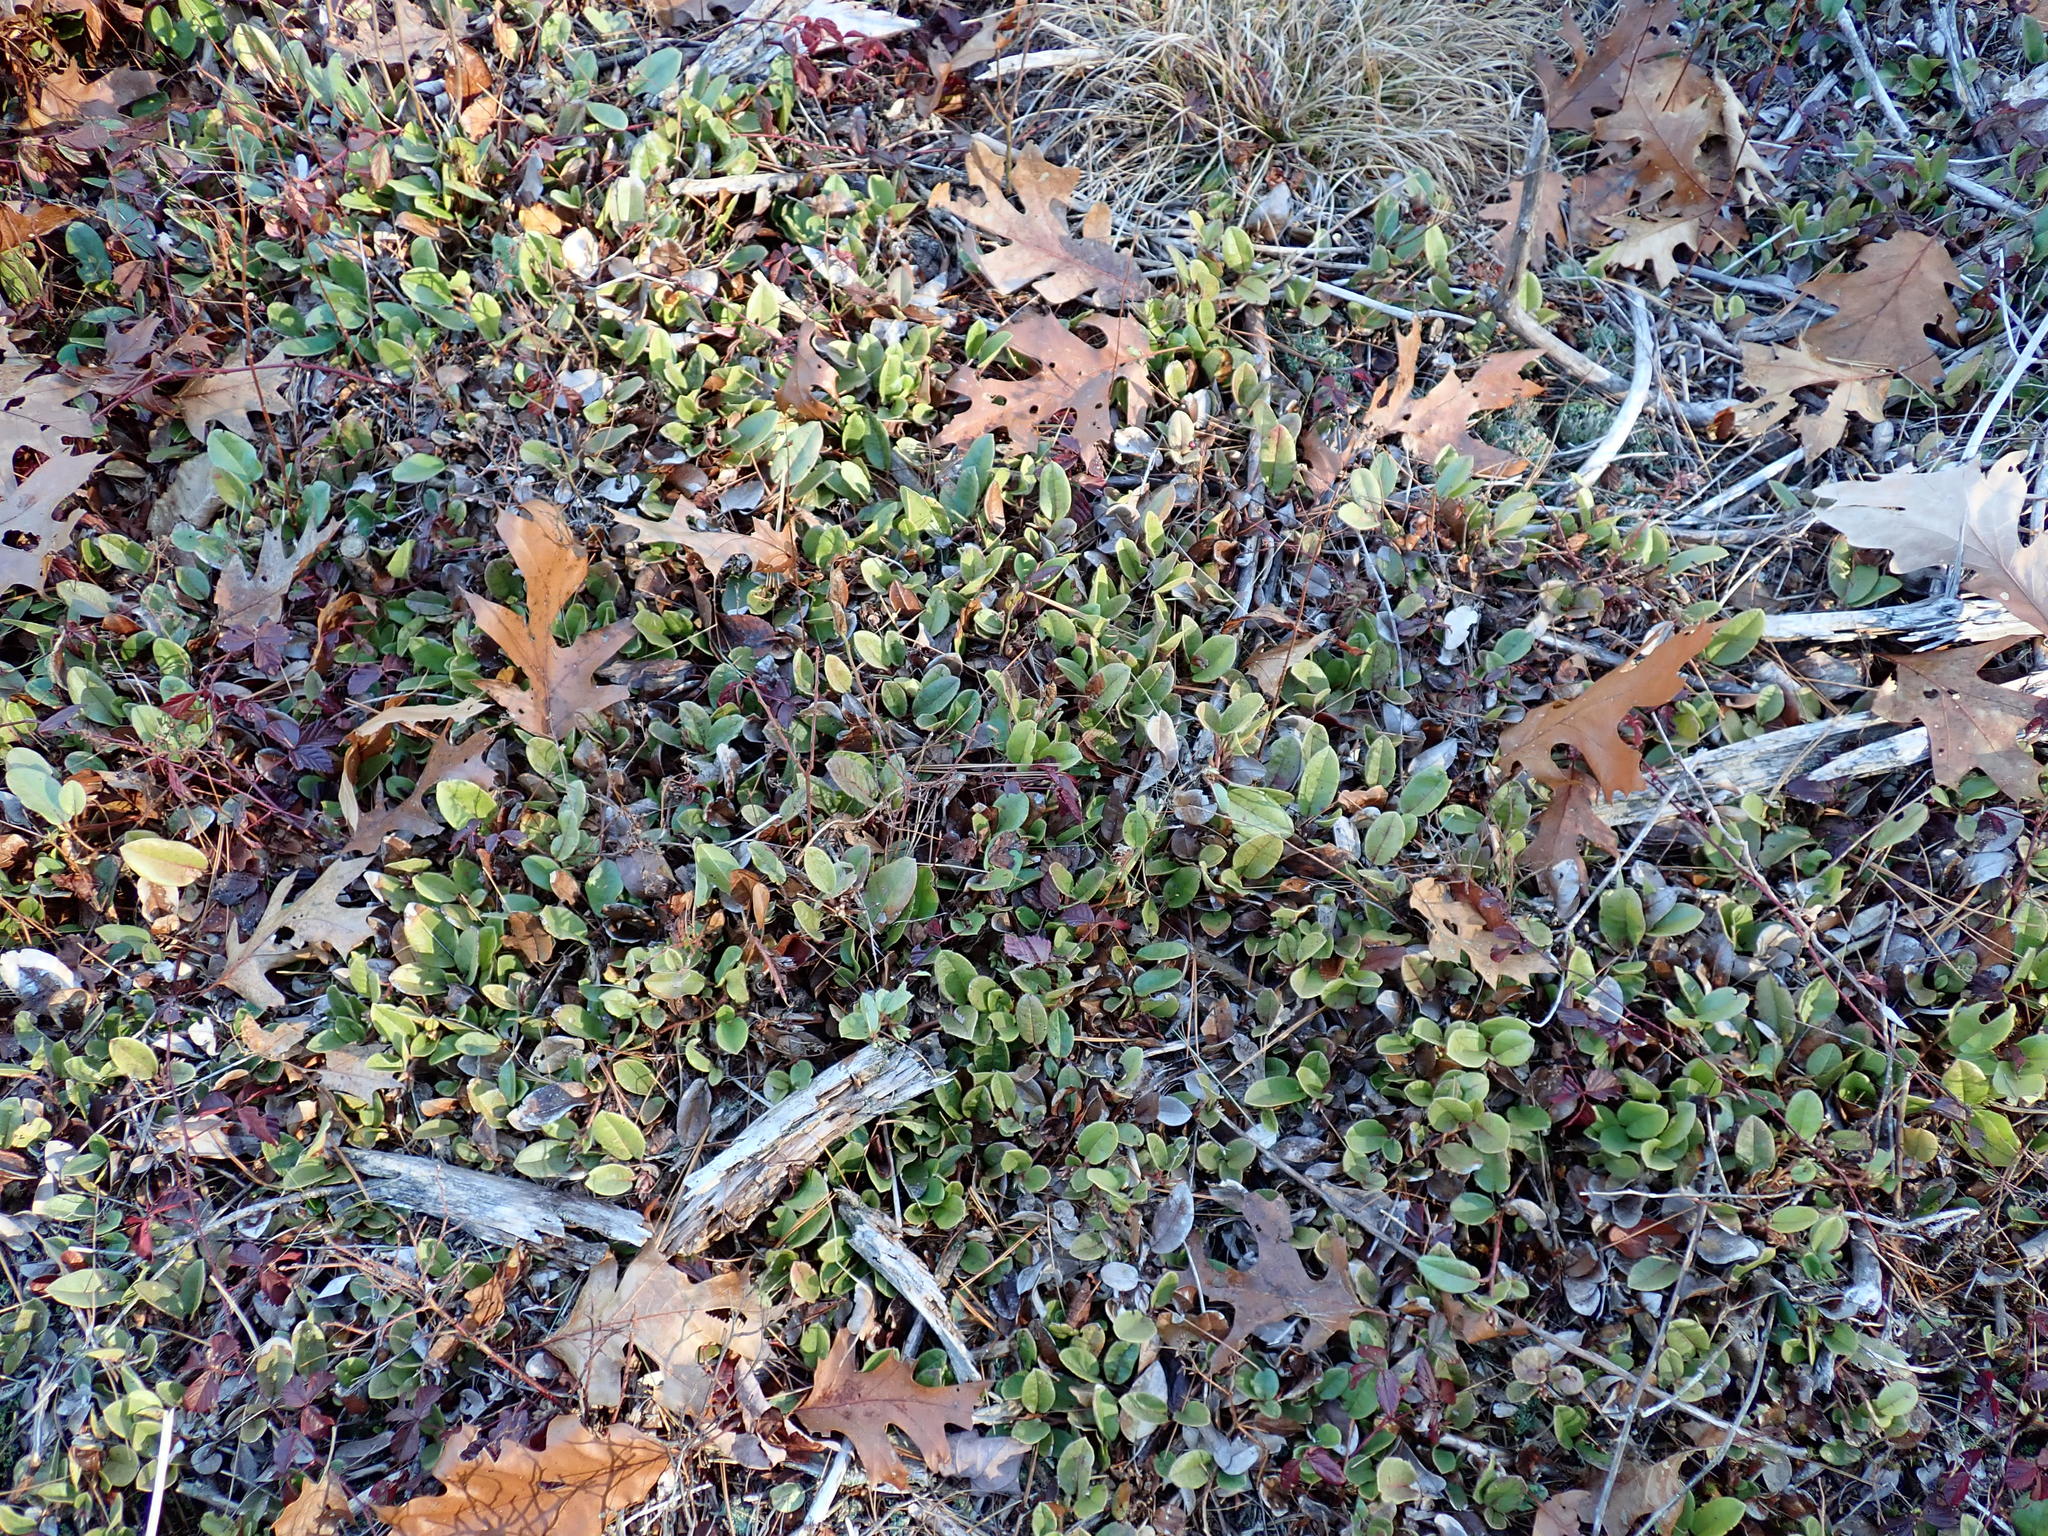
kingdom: Plantae
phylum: Tracheophyta
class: Magnoliopsida
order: Ericales
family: Ericaceae
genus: Epigaea
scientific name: Epigaea repens
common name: Gravelroot
